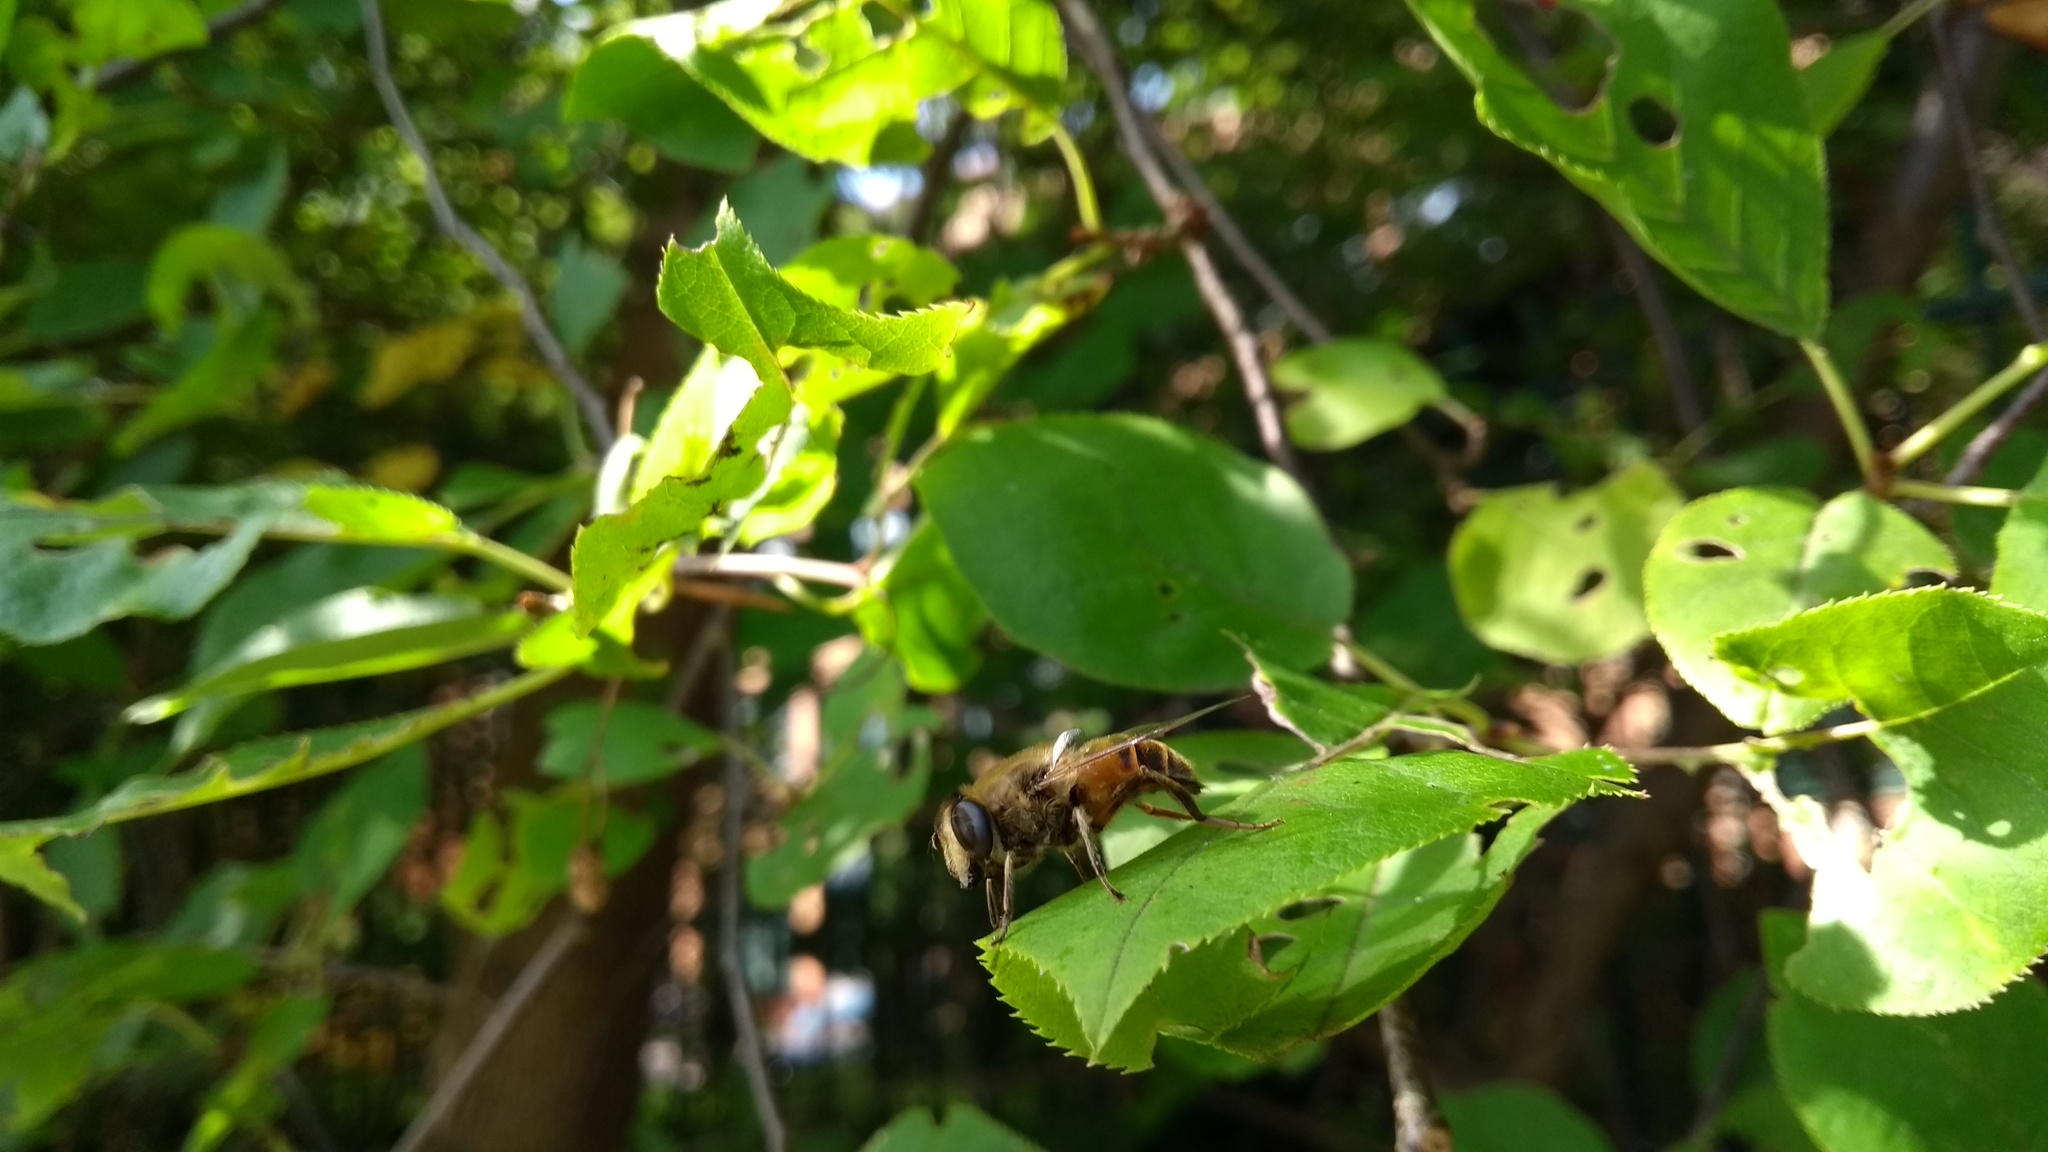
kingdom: Animalia
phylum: Arthropoda
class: Insecta
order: Diptera
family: Syrphidae
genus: Eristalis
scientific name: Eristalis tenax
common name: Drone fly
